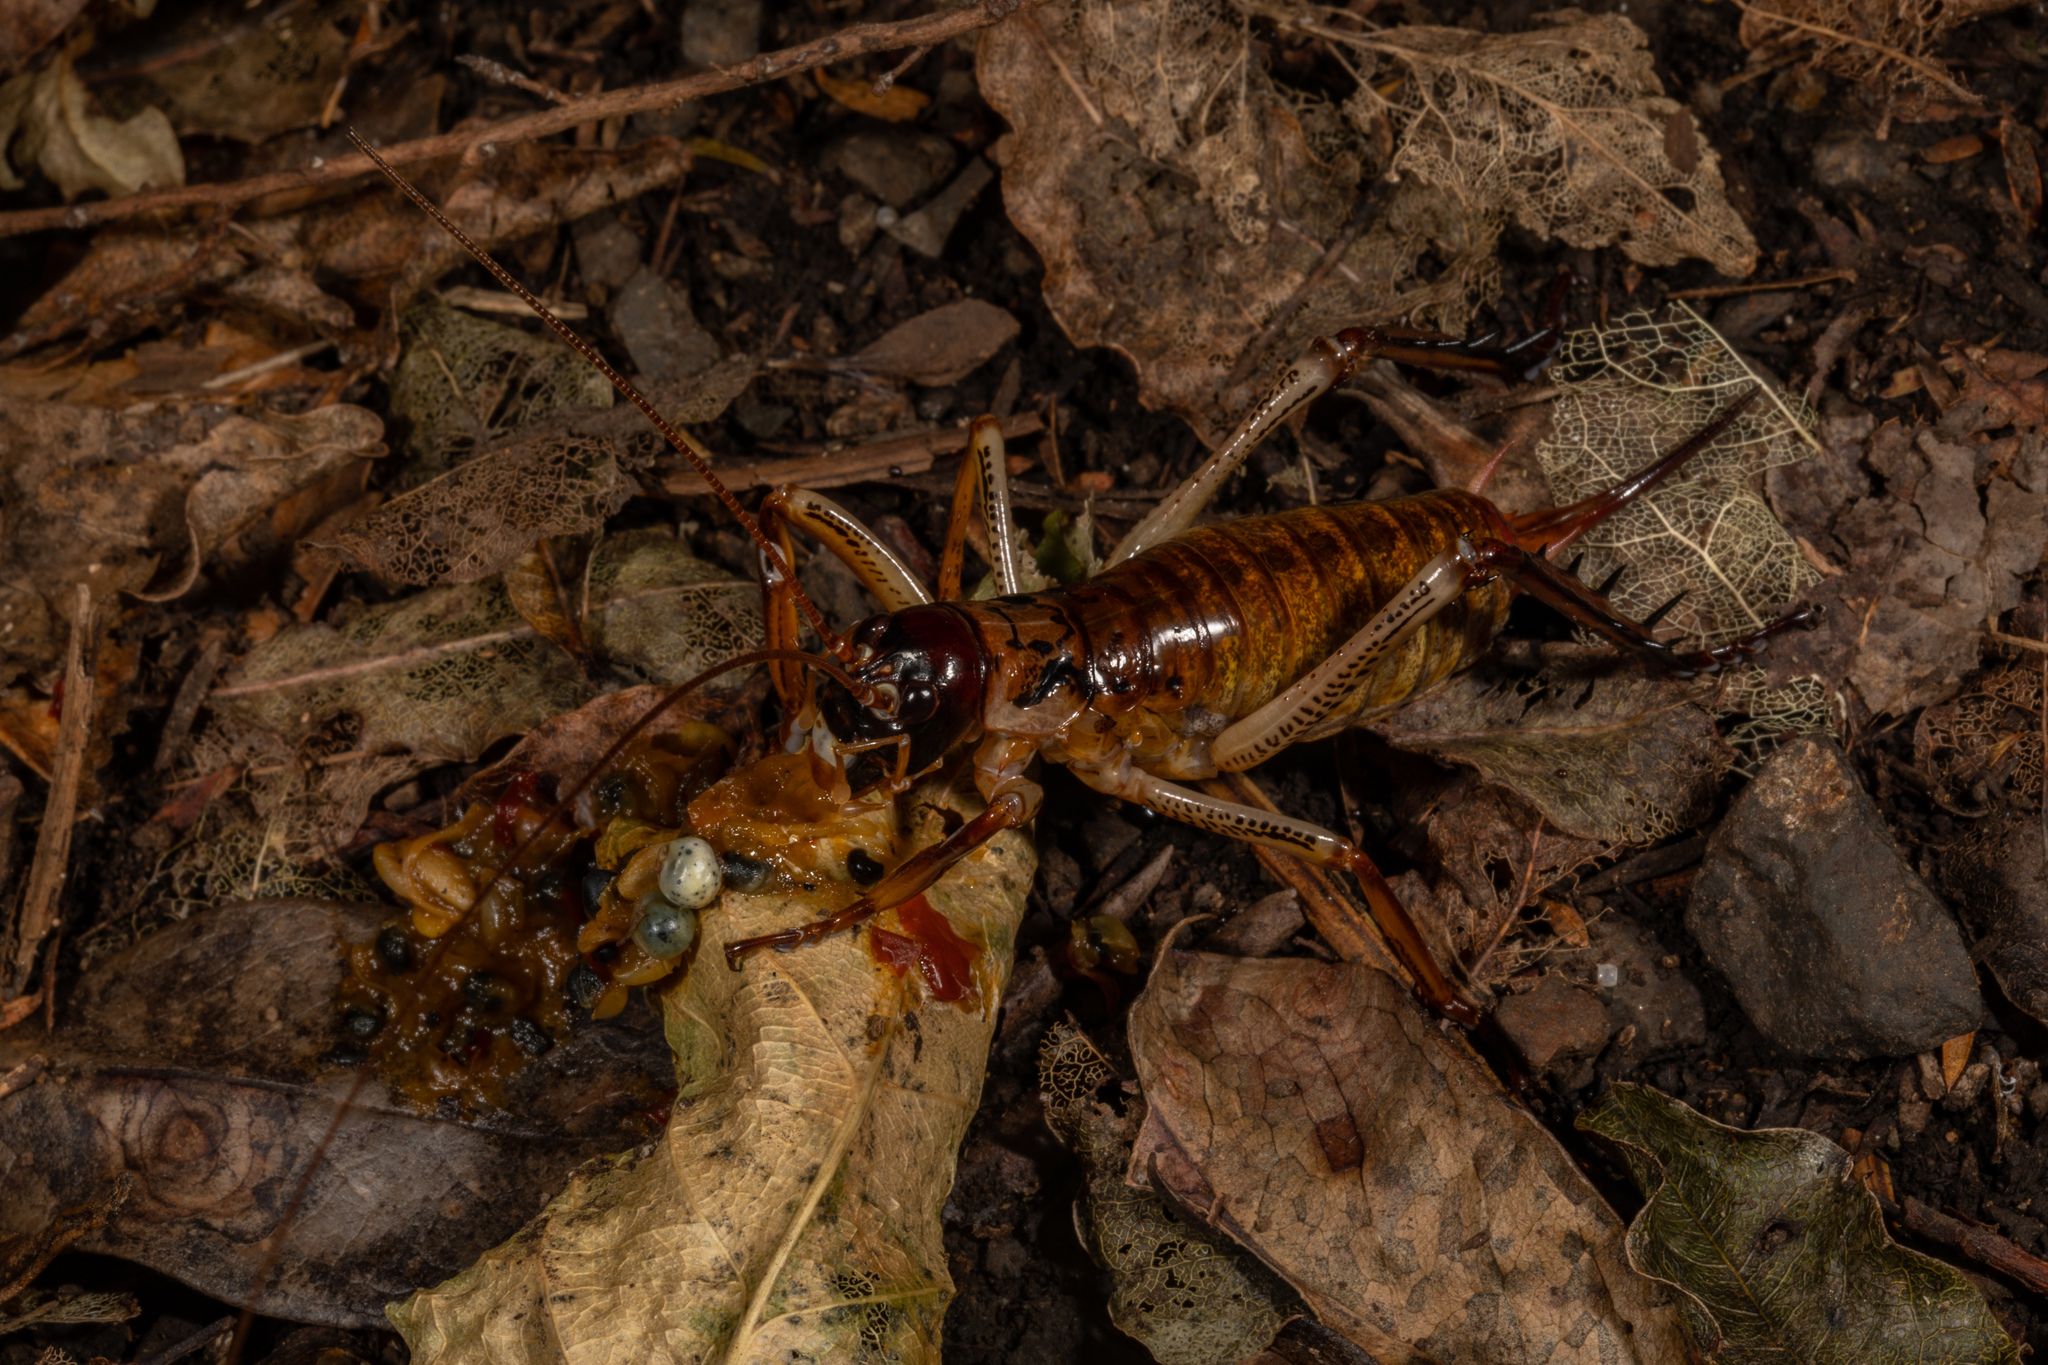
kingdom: Animalia
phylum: Arthropoda
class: Insecta
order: Orthoptera
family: Anostostomatidae
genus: Hemideina
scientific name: Hemideina thoracica
